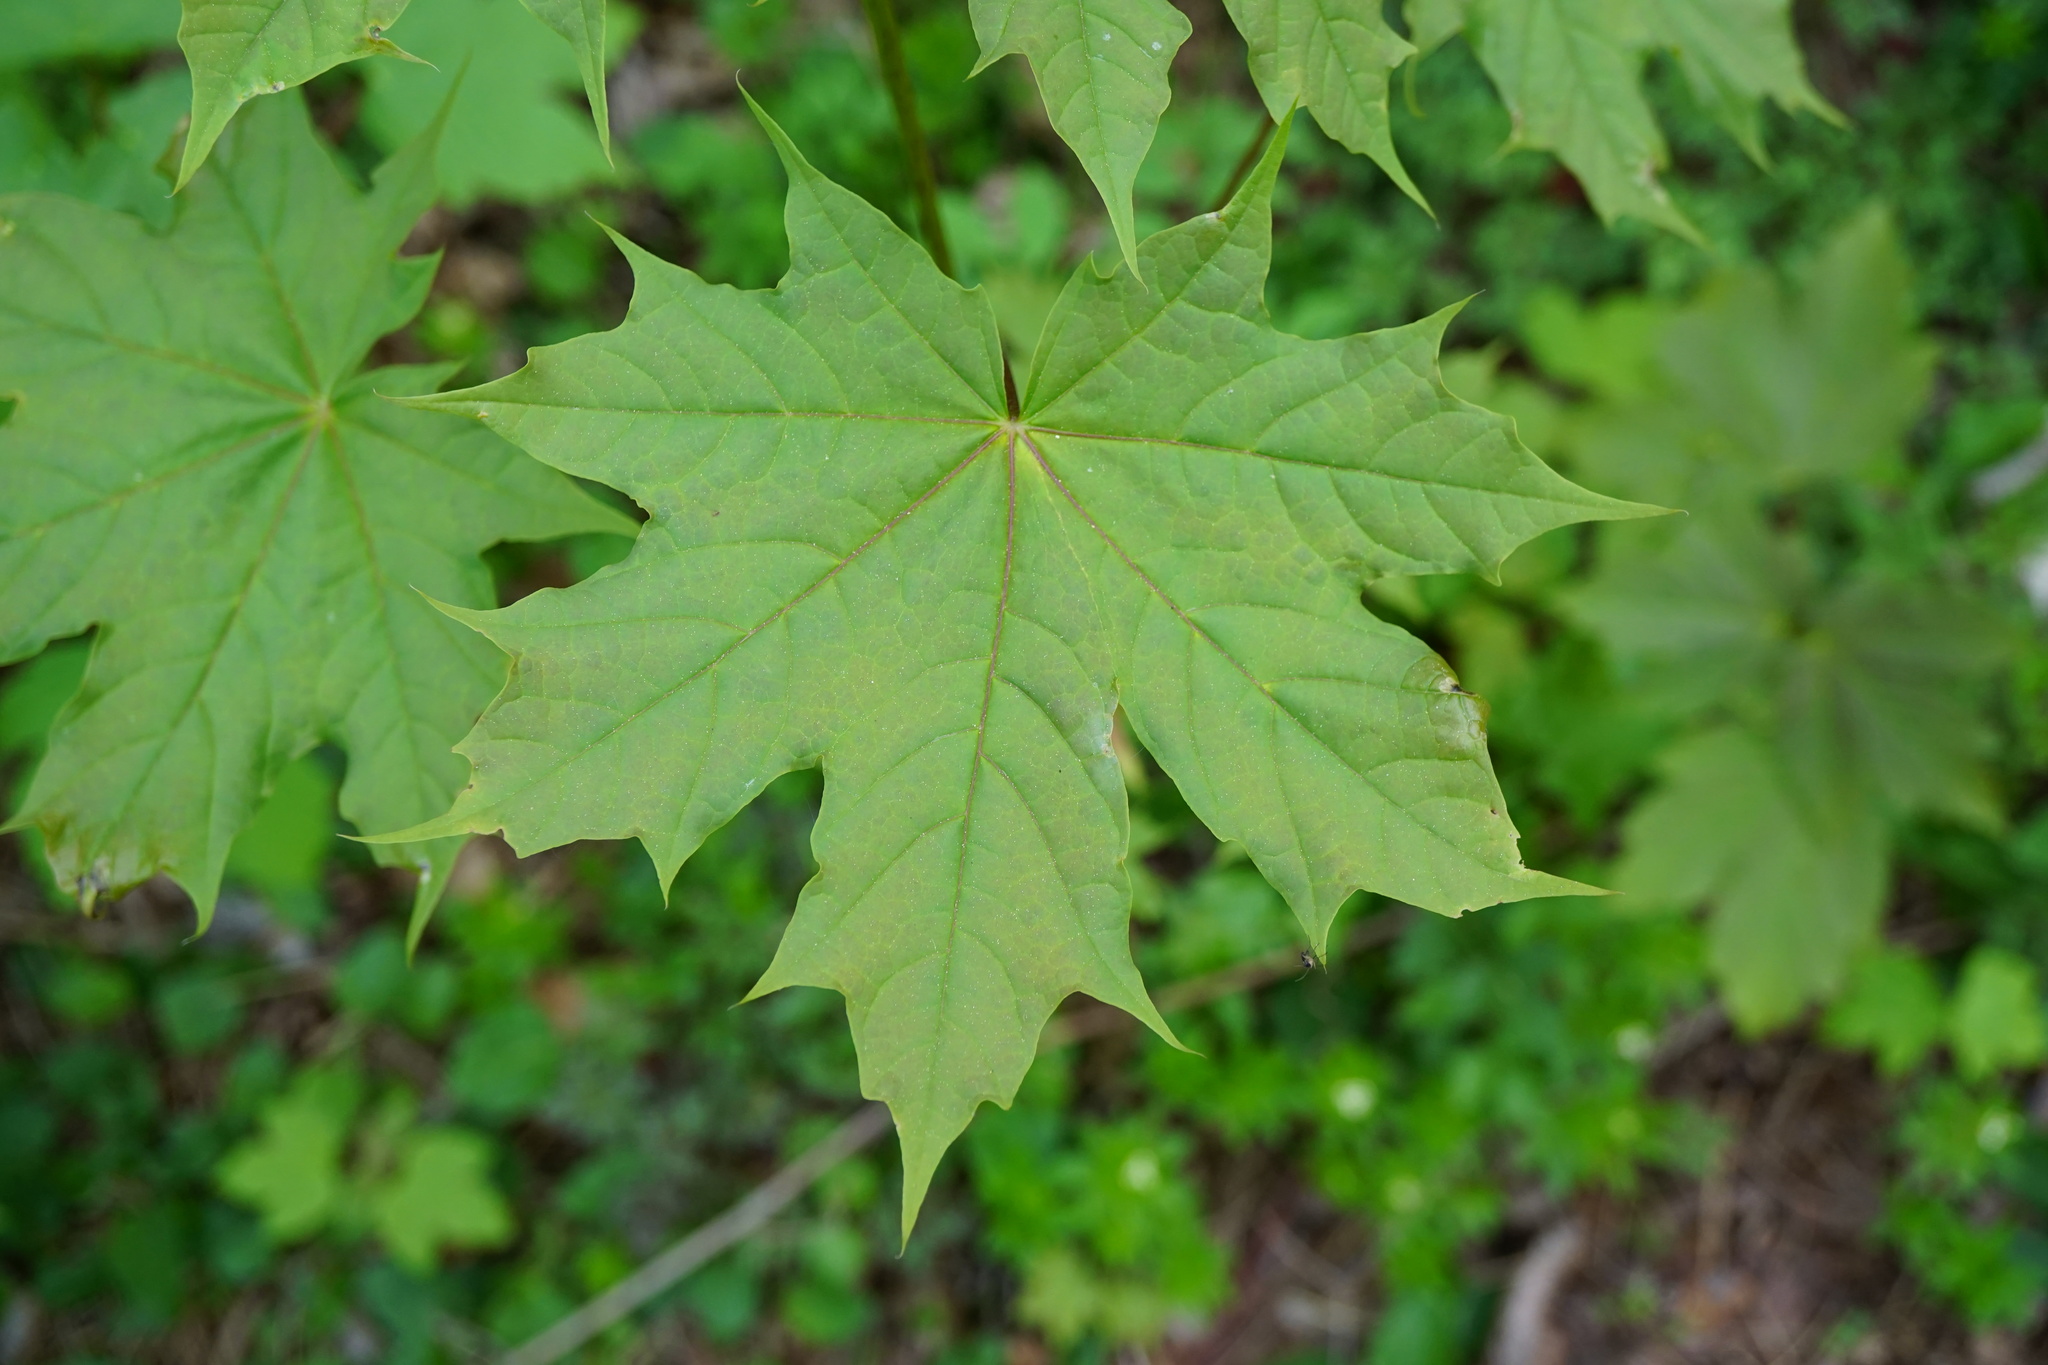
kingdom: Plantae
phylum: Tracheophyta
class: Magnoliopsida
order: Sapindales
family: Sapindaceae
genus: Acer
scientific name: Acer platanoides
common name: Norway maple
